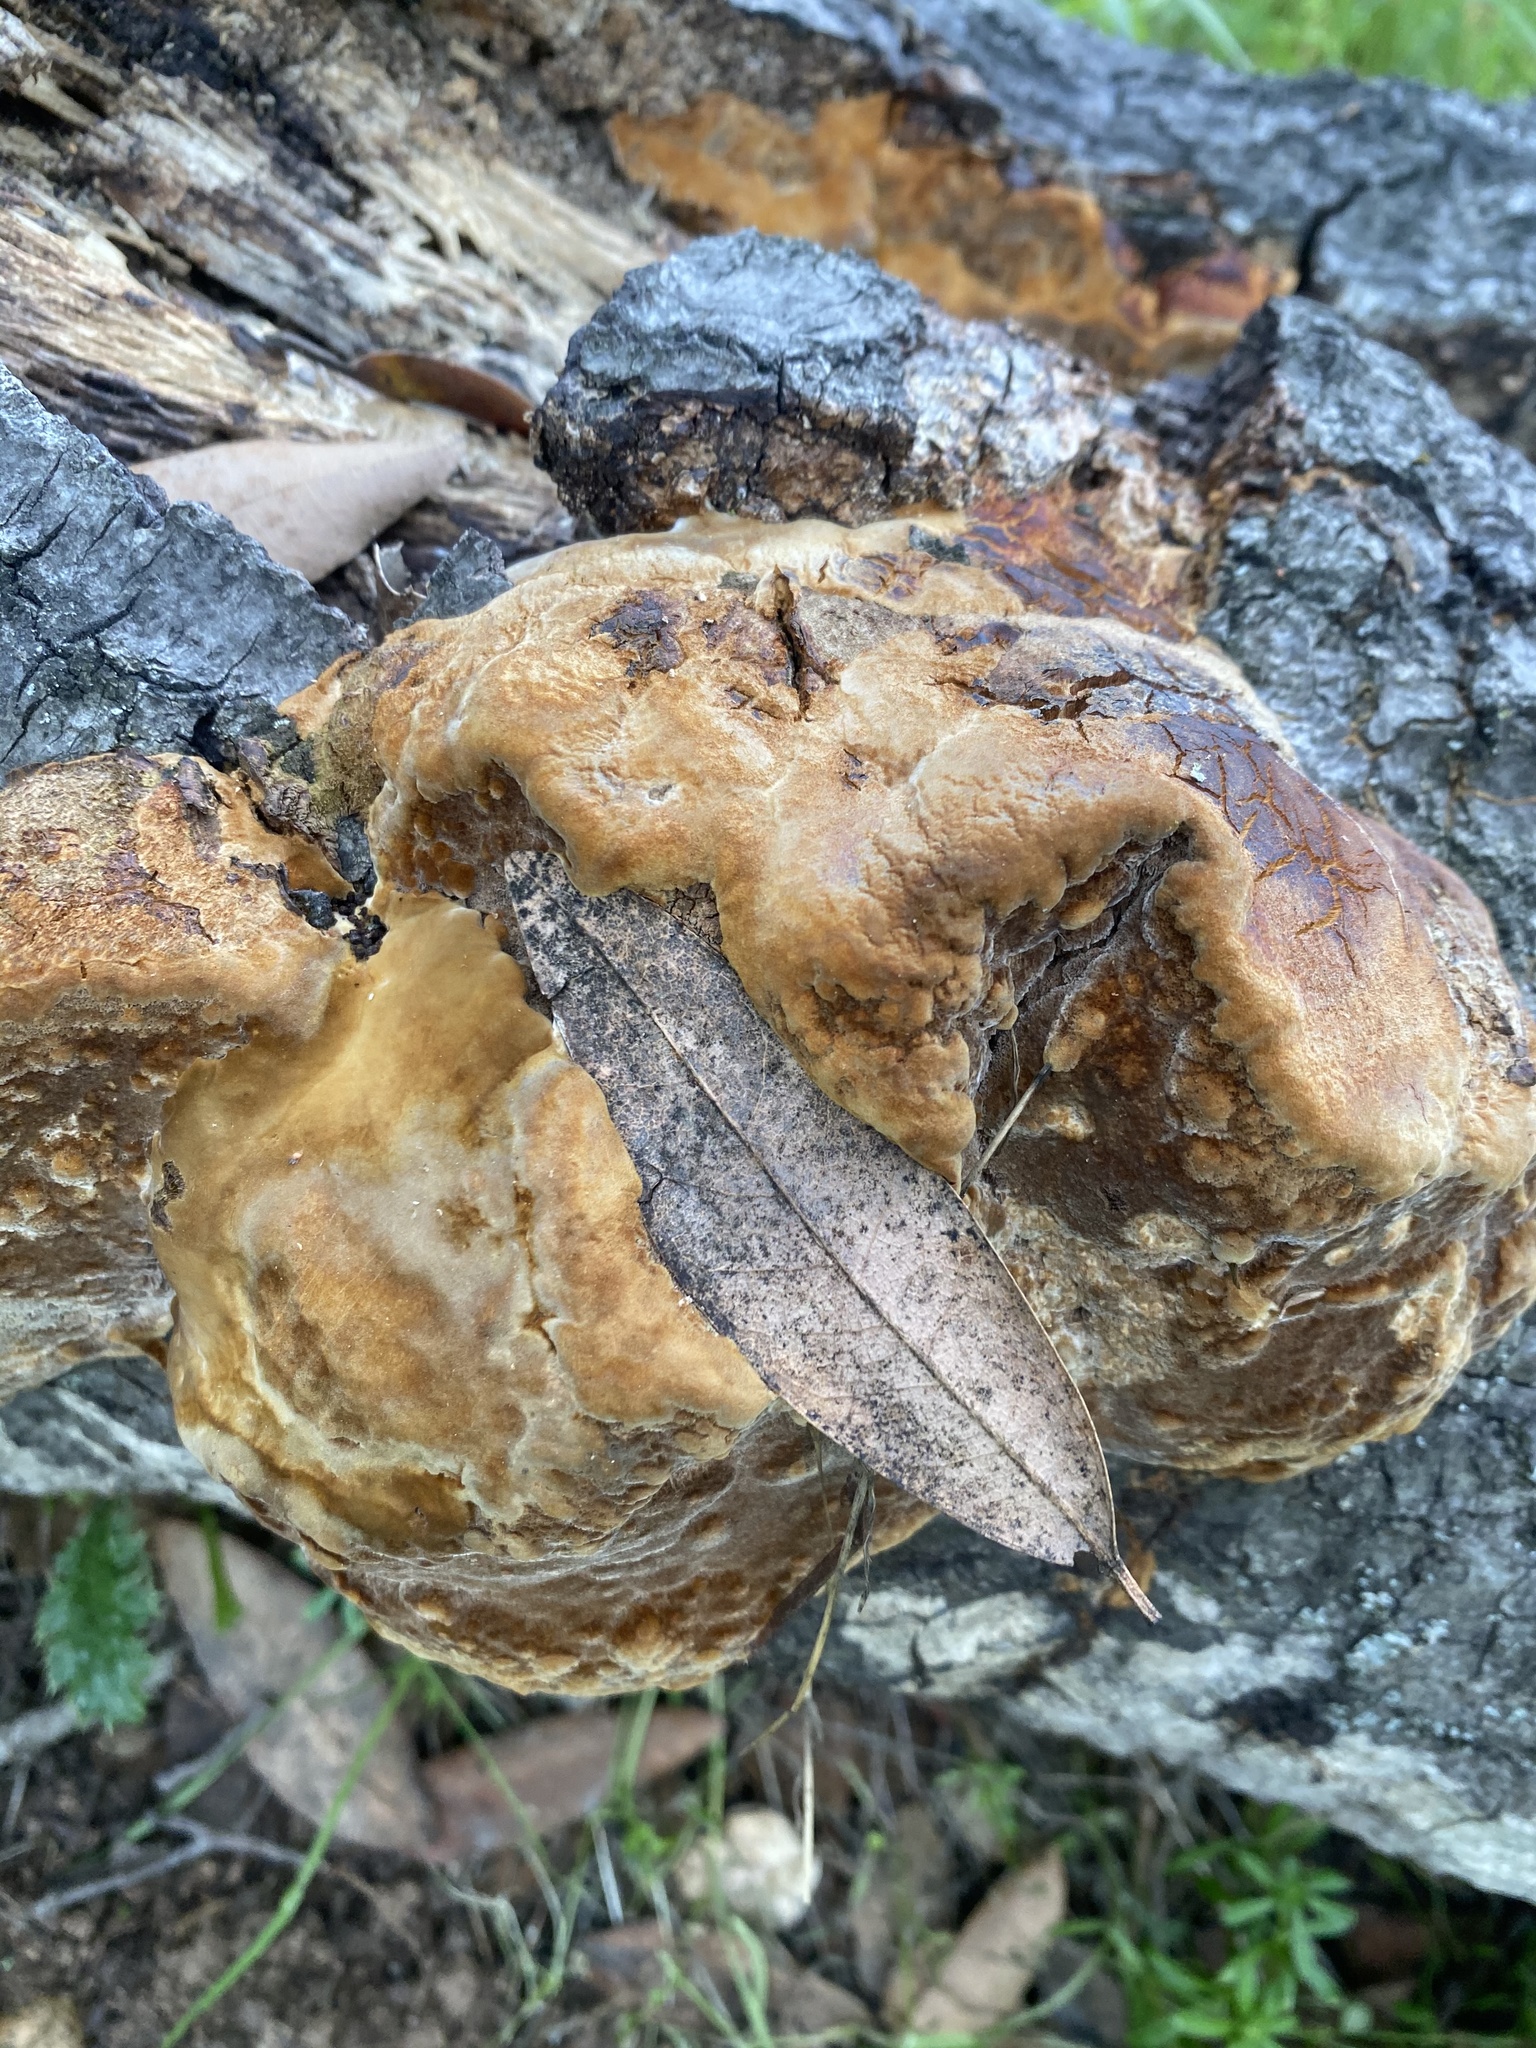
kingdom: Fungi
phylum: Basidiomycota
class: Agaricomycetes
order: Hymenochaetales
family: Hymenochaetaceae
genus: Fomitiporia
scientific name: Fomitiporia fissurata
